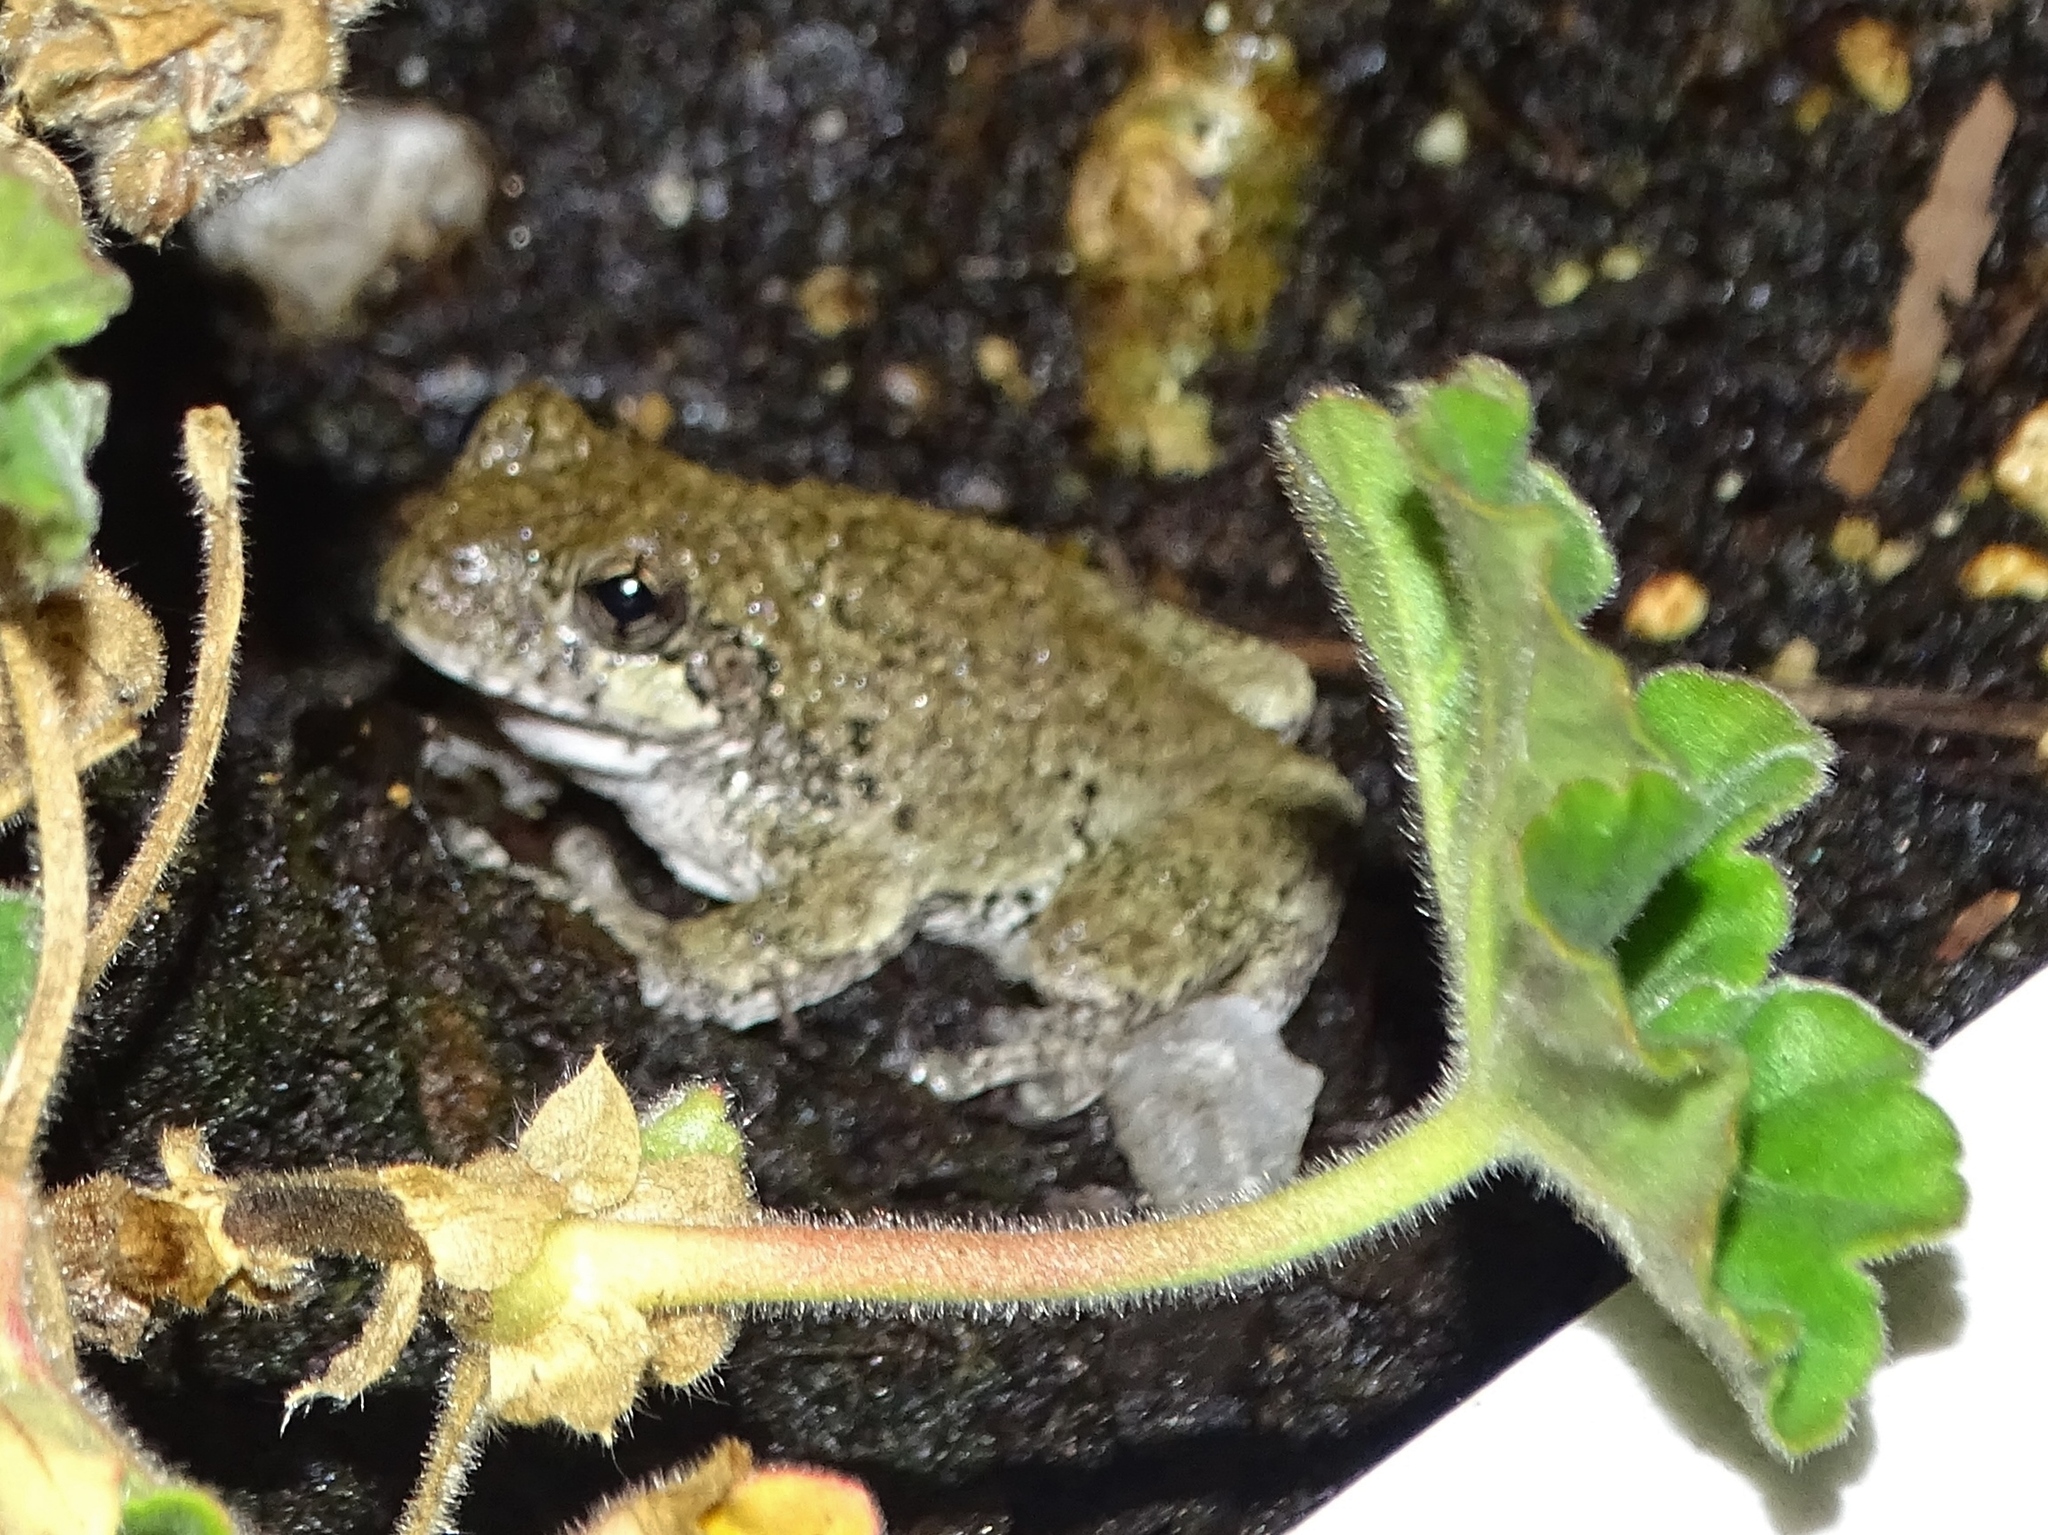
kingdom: Animalia
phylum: Chordata
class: Amphibia
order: Anura
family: Hylidae
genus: Dryophytes
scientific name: Dryophytes versicolor
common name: Gray treefrog
